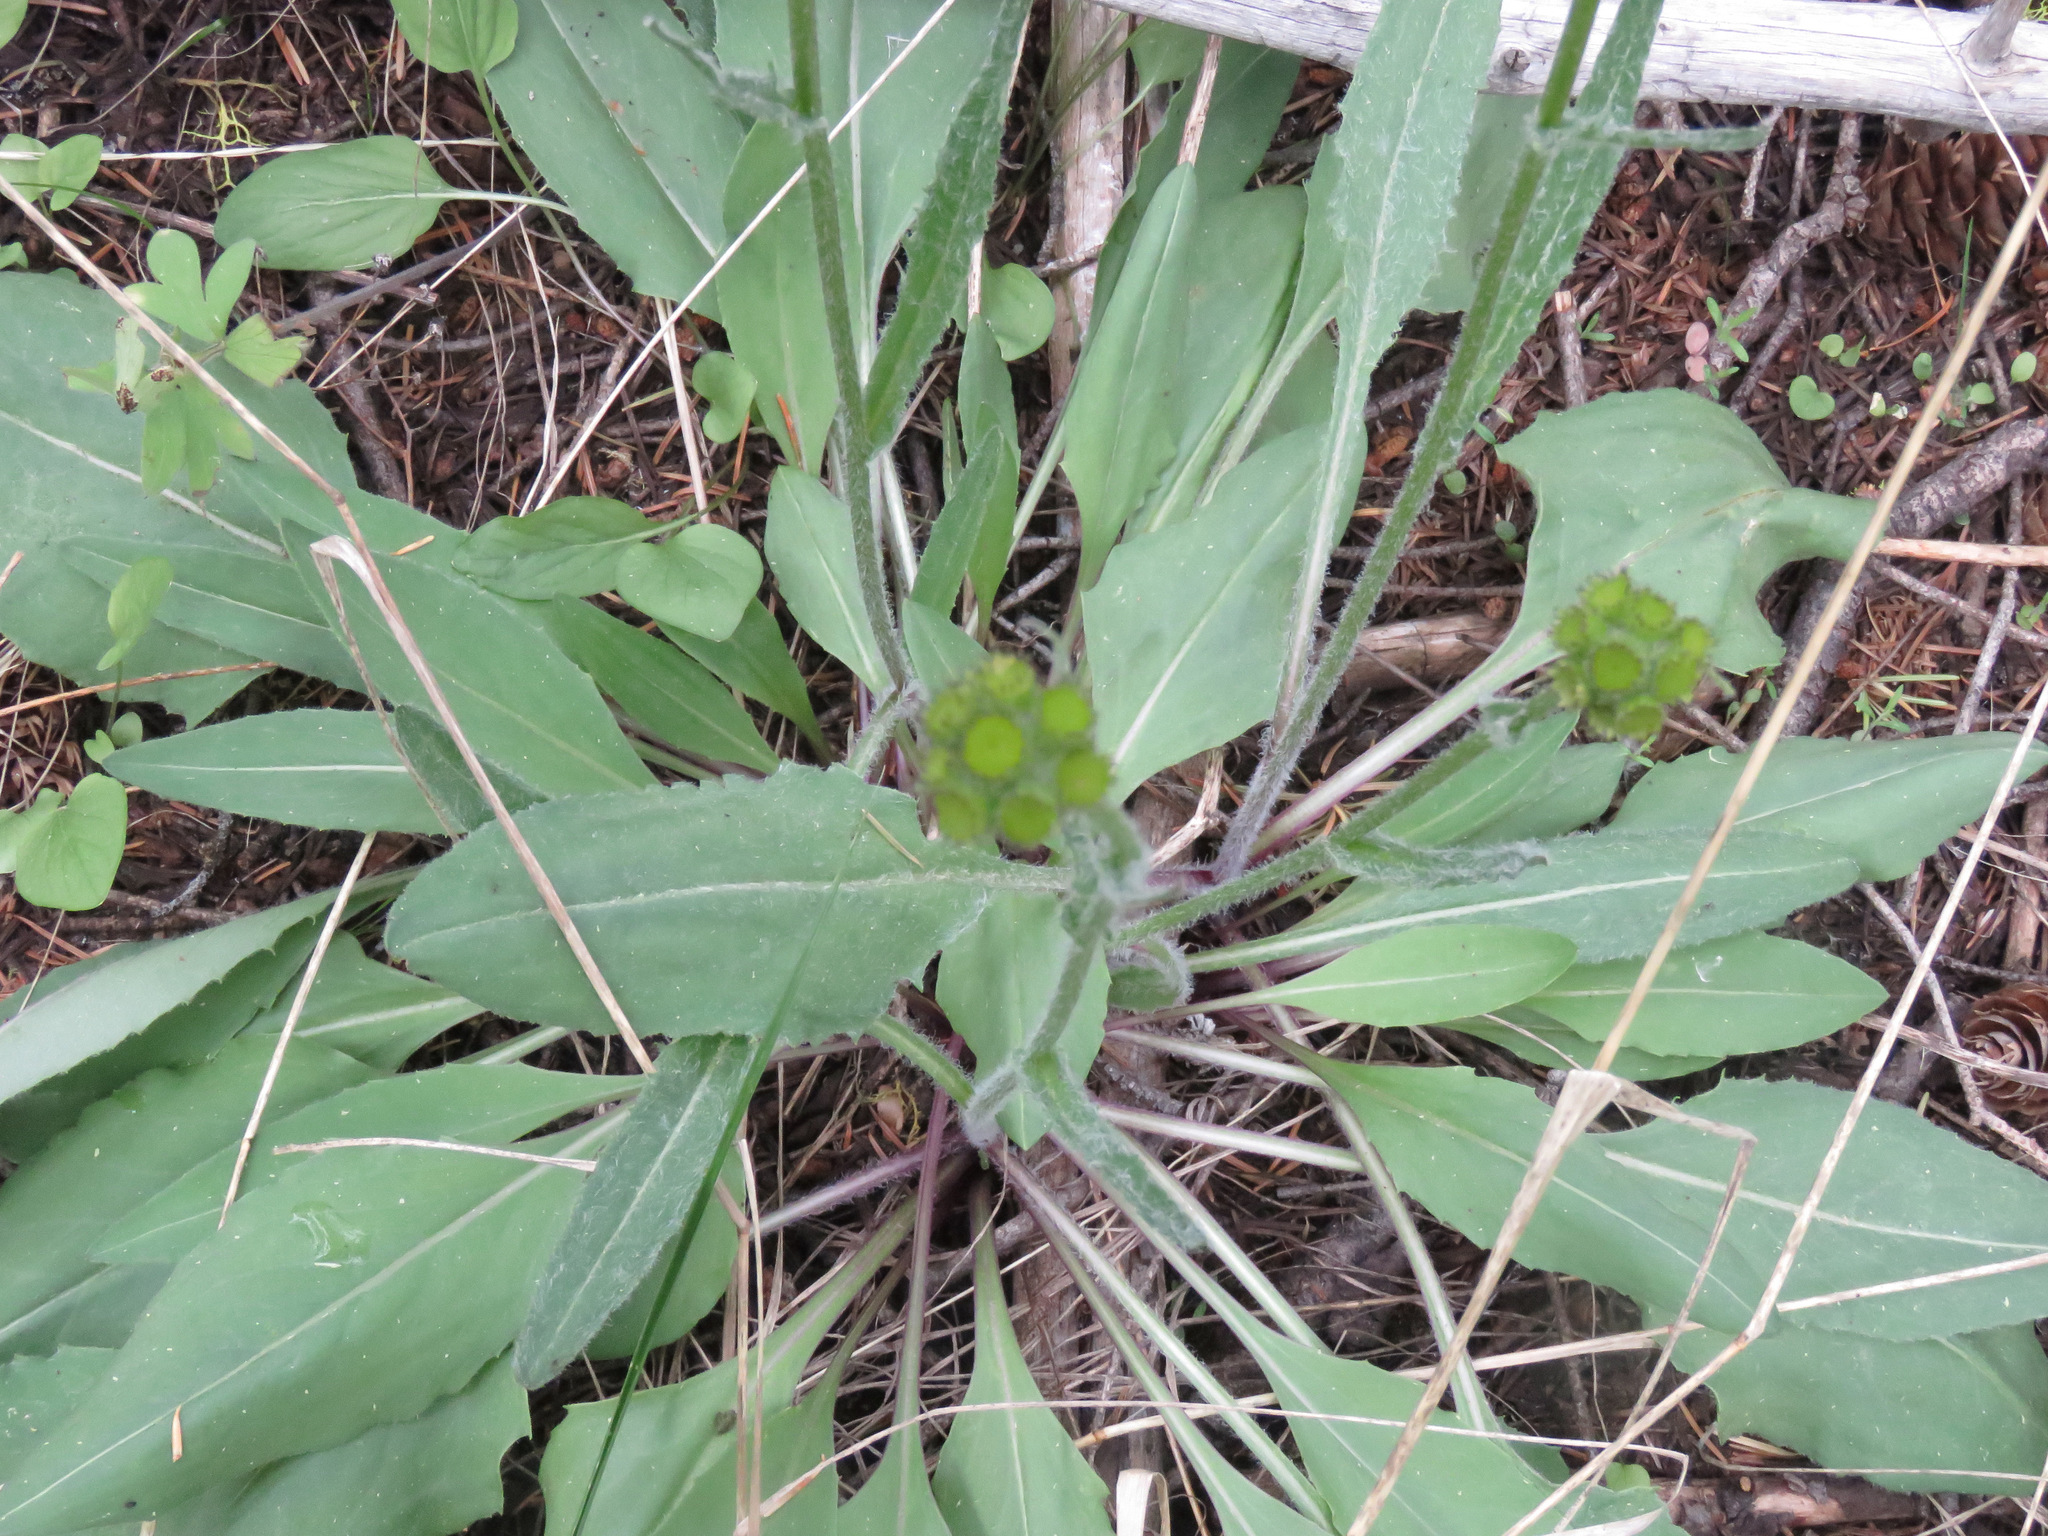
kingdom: Plantae
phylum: Tracheophyta
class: Magnoliopsida
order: Asterales
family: Asteraceae
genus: Senecio
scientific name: Senecio integerrimus
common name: Gaugeplant
